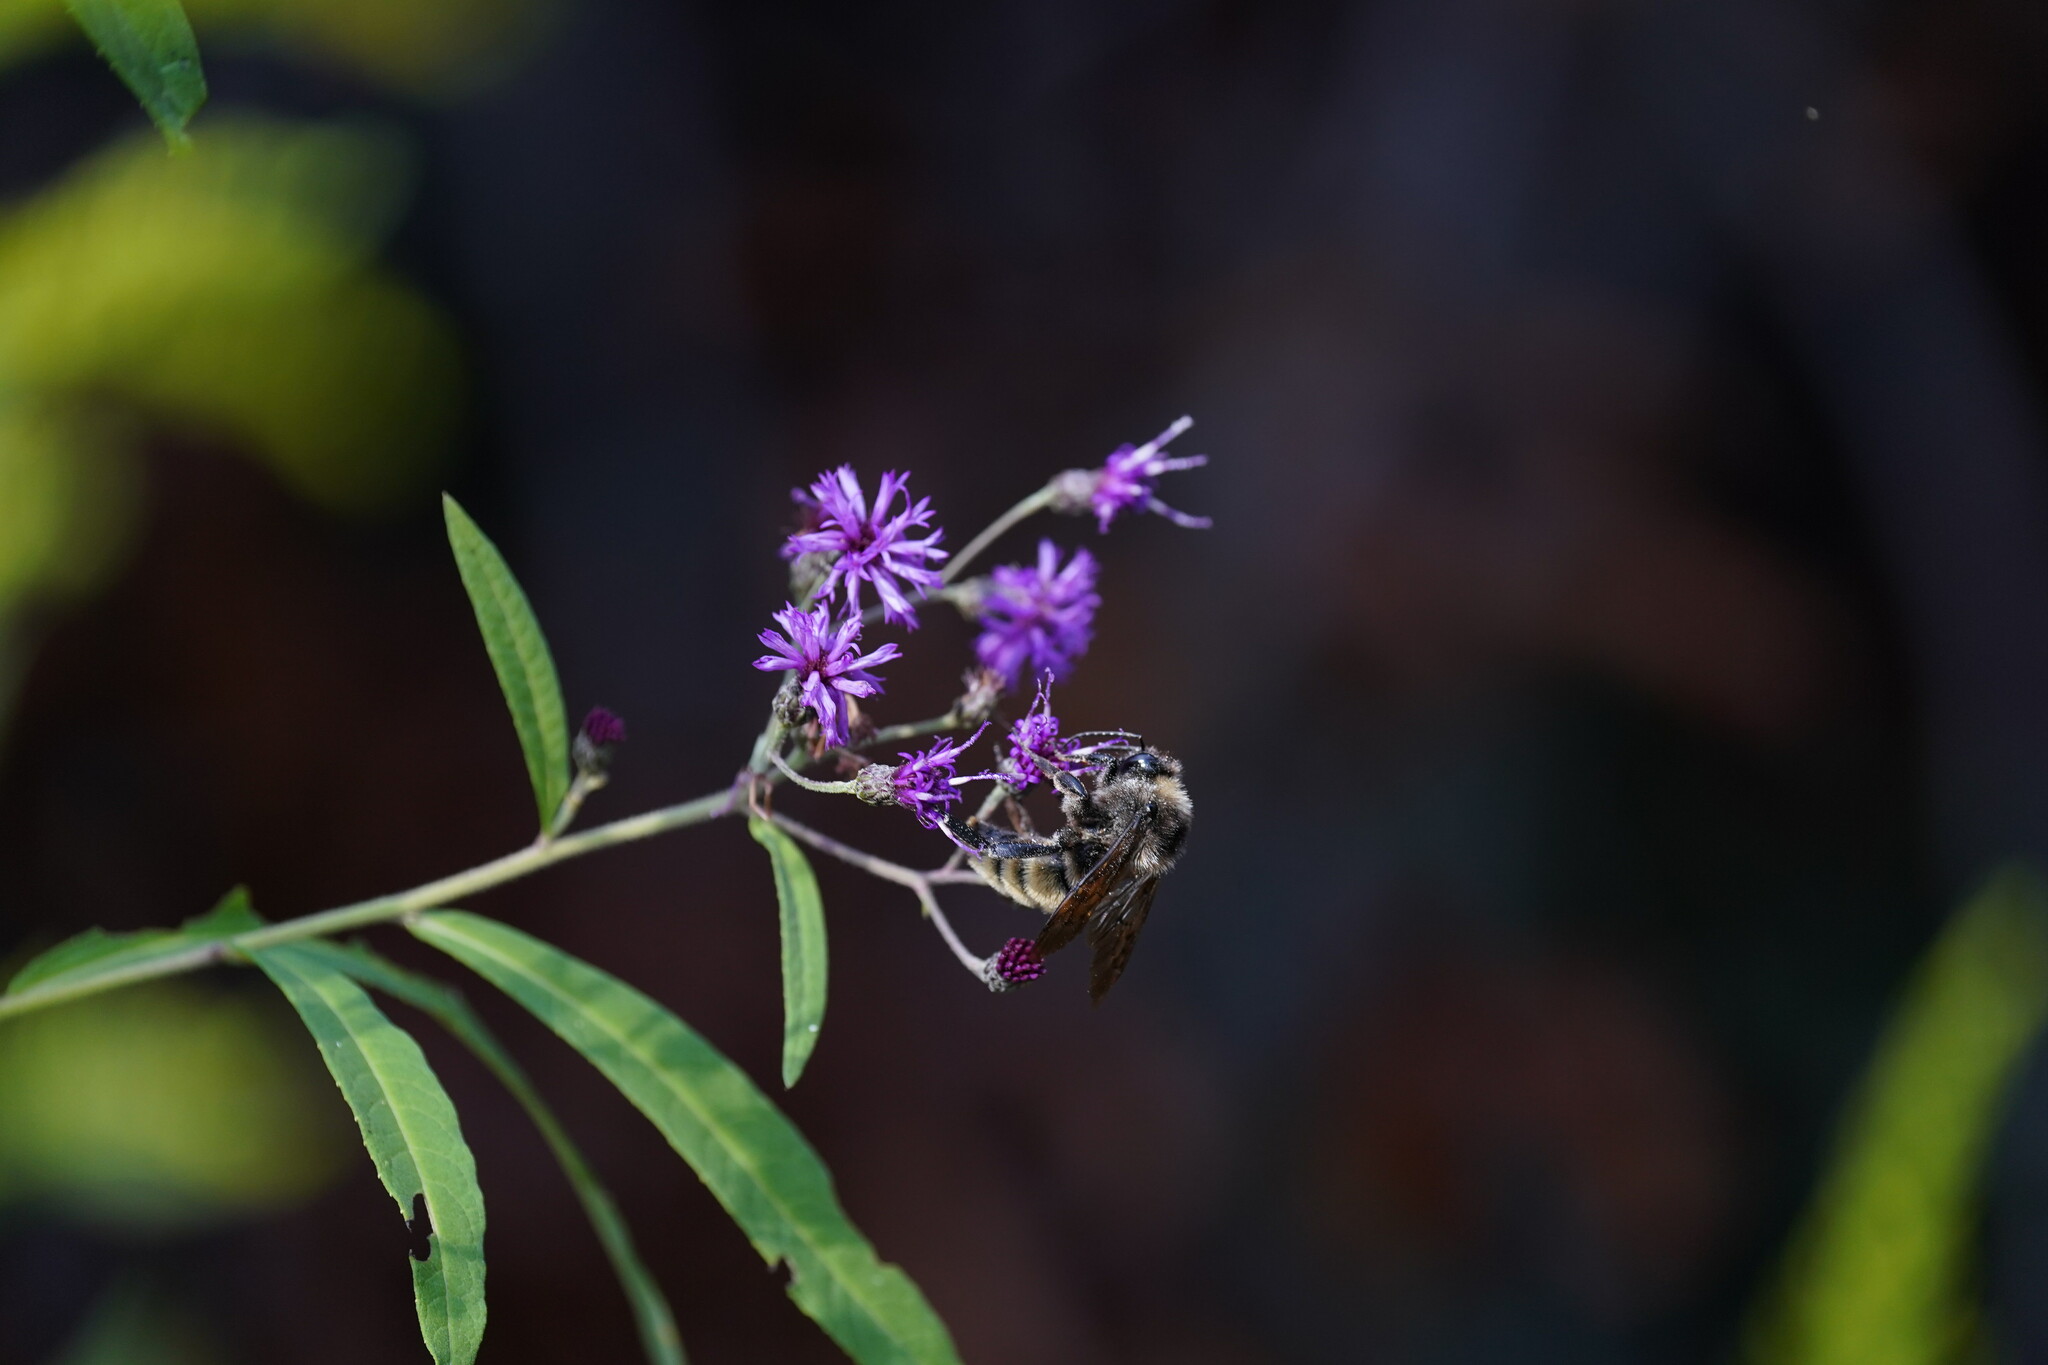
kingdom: Animalia
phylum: Arthropoda
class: Insecta
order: Hymenoptera
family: Apidae
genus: Bombus
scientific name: Bombus pensylvanicus
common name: Bumble bee
